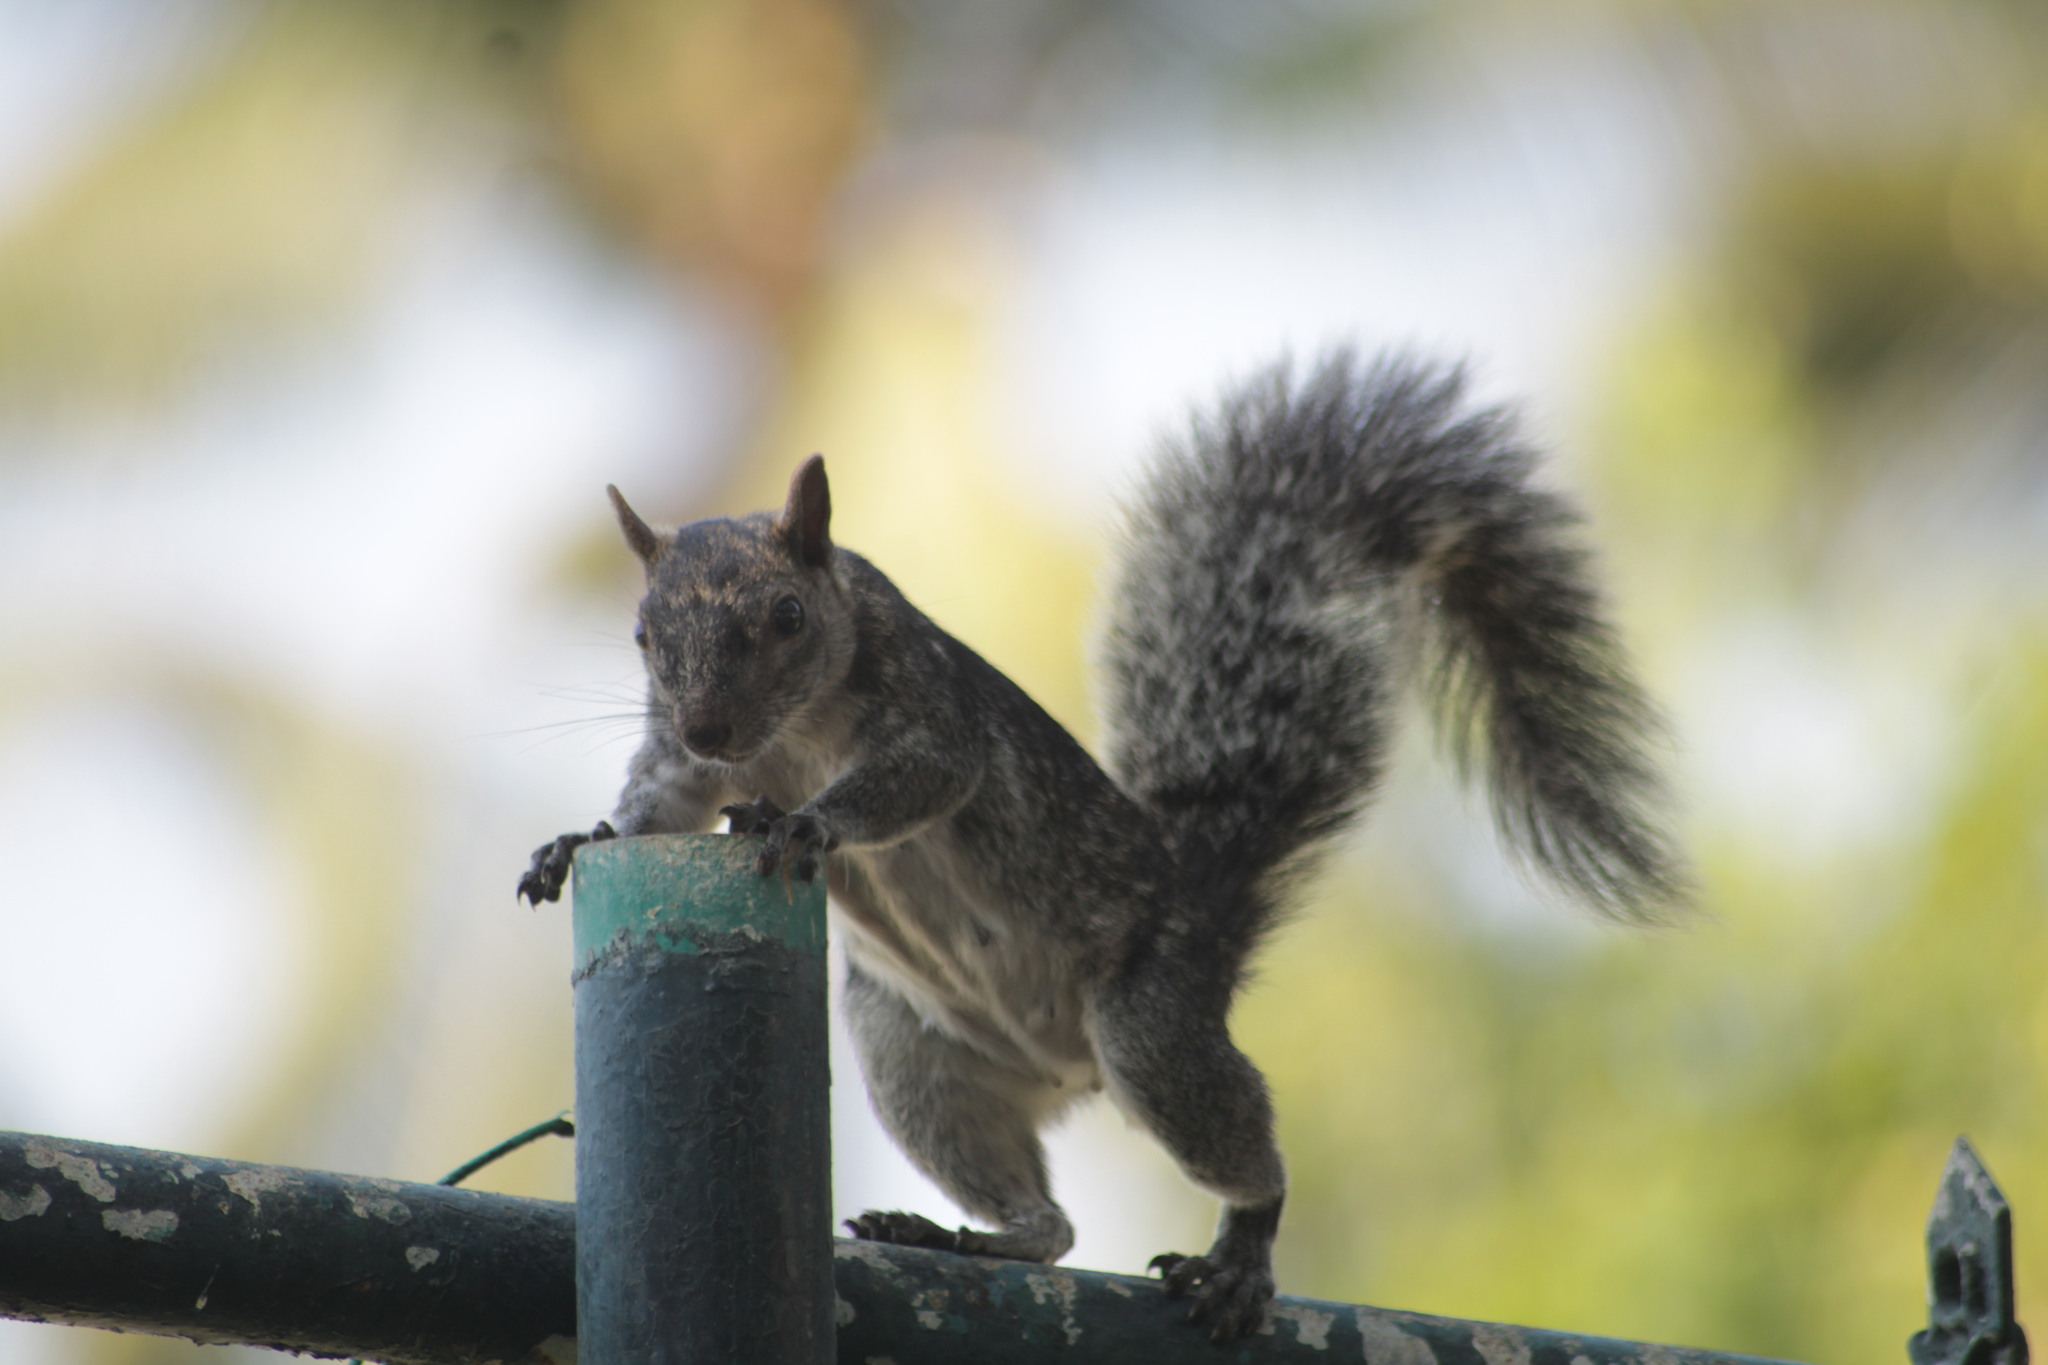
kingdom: Animalia
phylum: Chordata
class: Mammalia
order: Rodentia
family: Sciuridae
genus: Sciurus
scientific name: Sciurus colliaei
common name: Collie's squirrel
